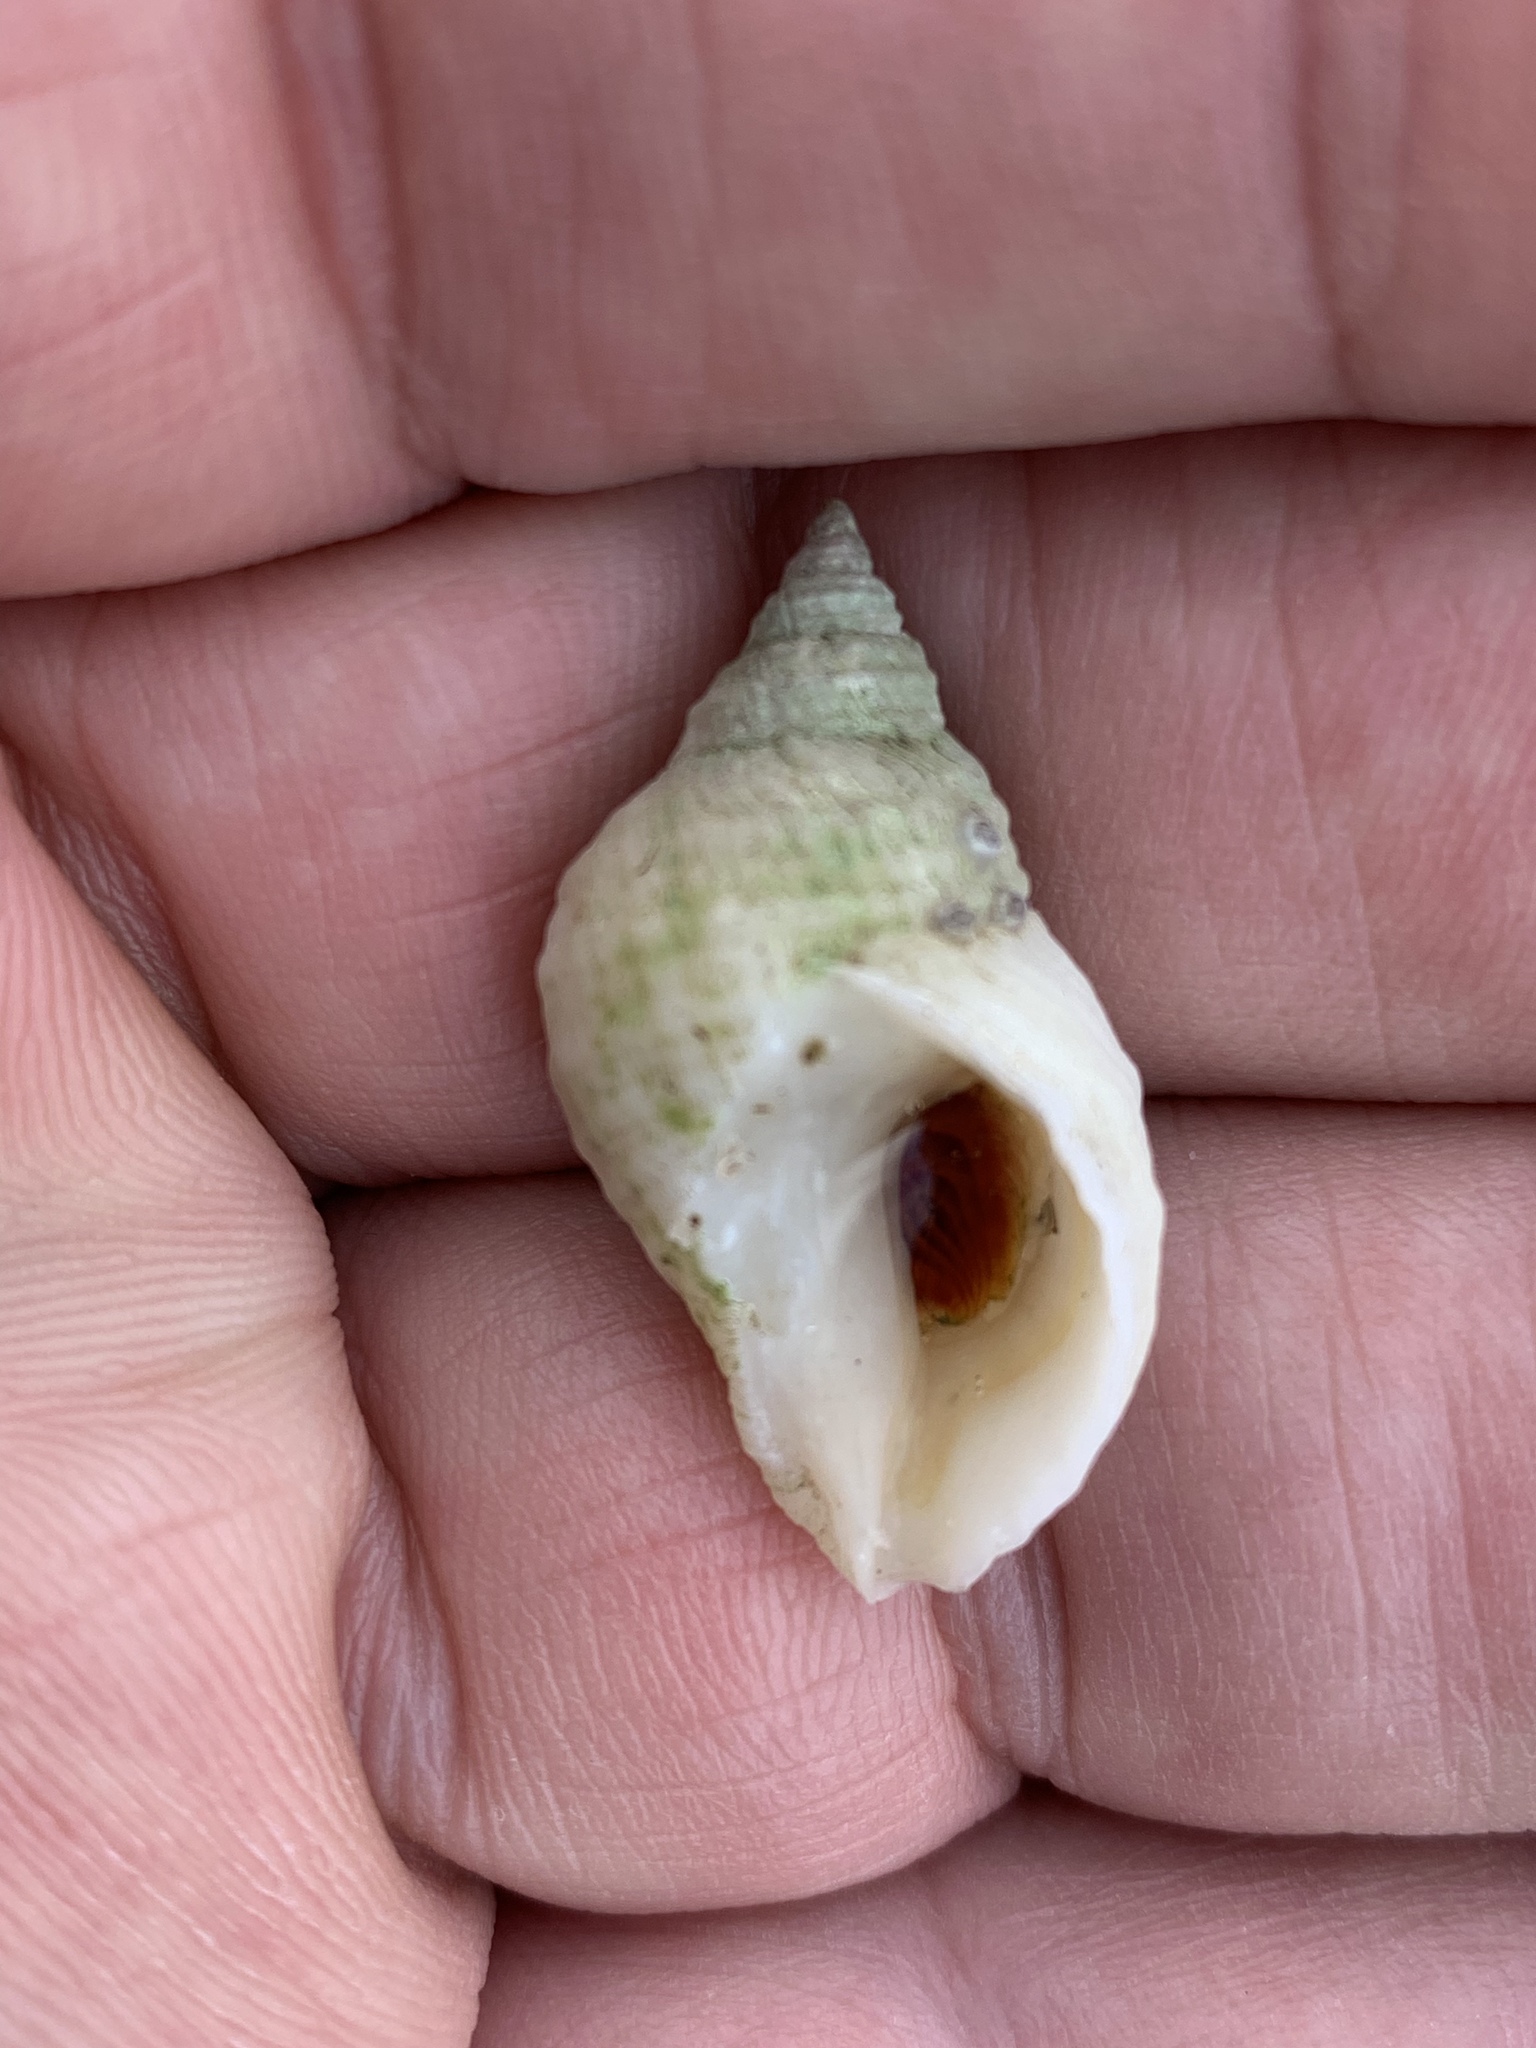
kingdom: Animalia
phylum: Mollusca
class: Gastropoda
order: Neogastropoda
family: Muricidae
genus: Nucella
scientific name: Nucella lapillus
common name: Dog whelk
